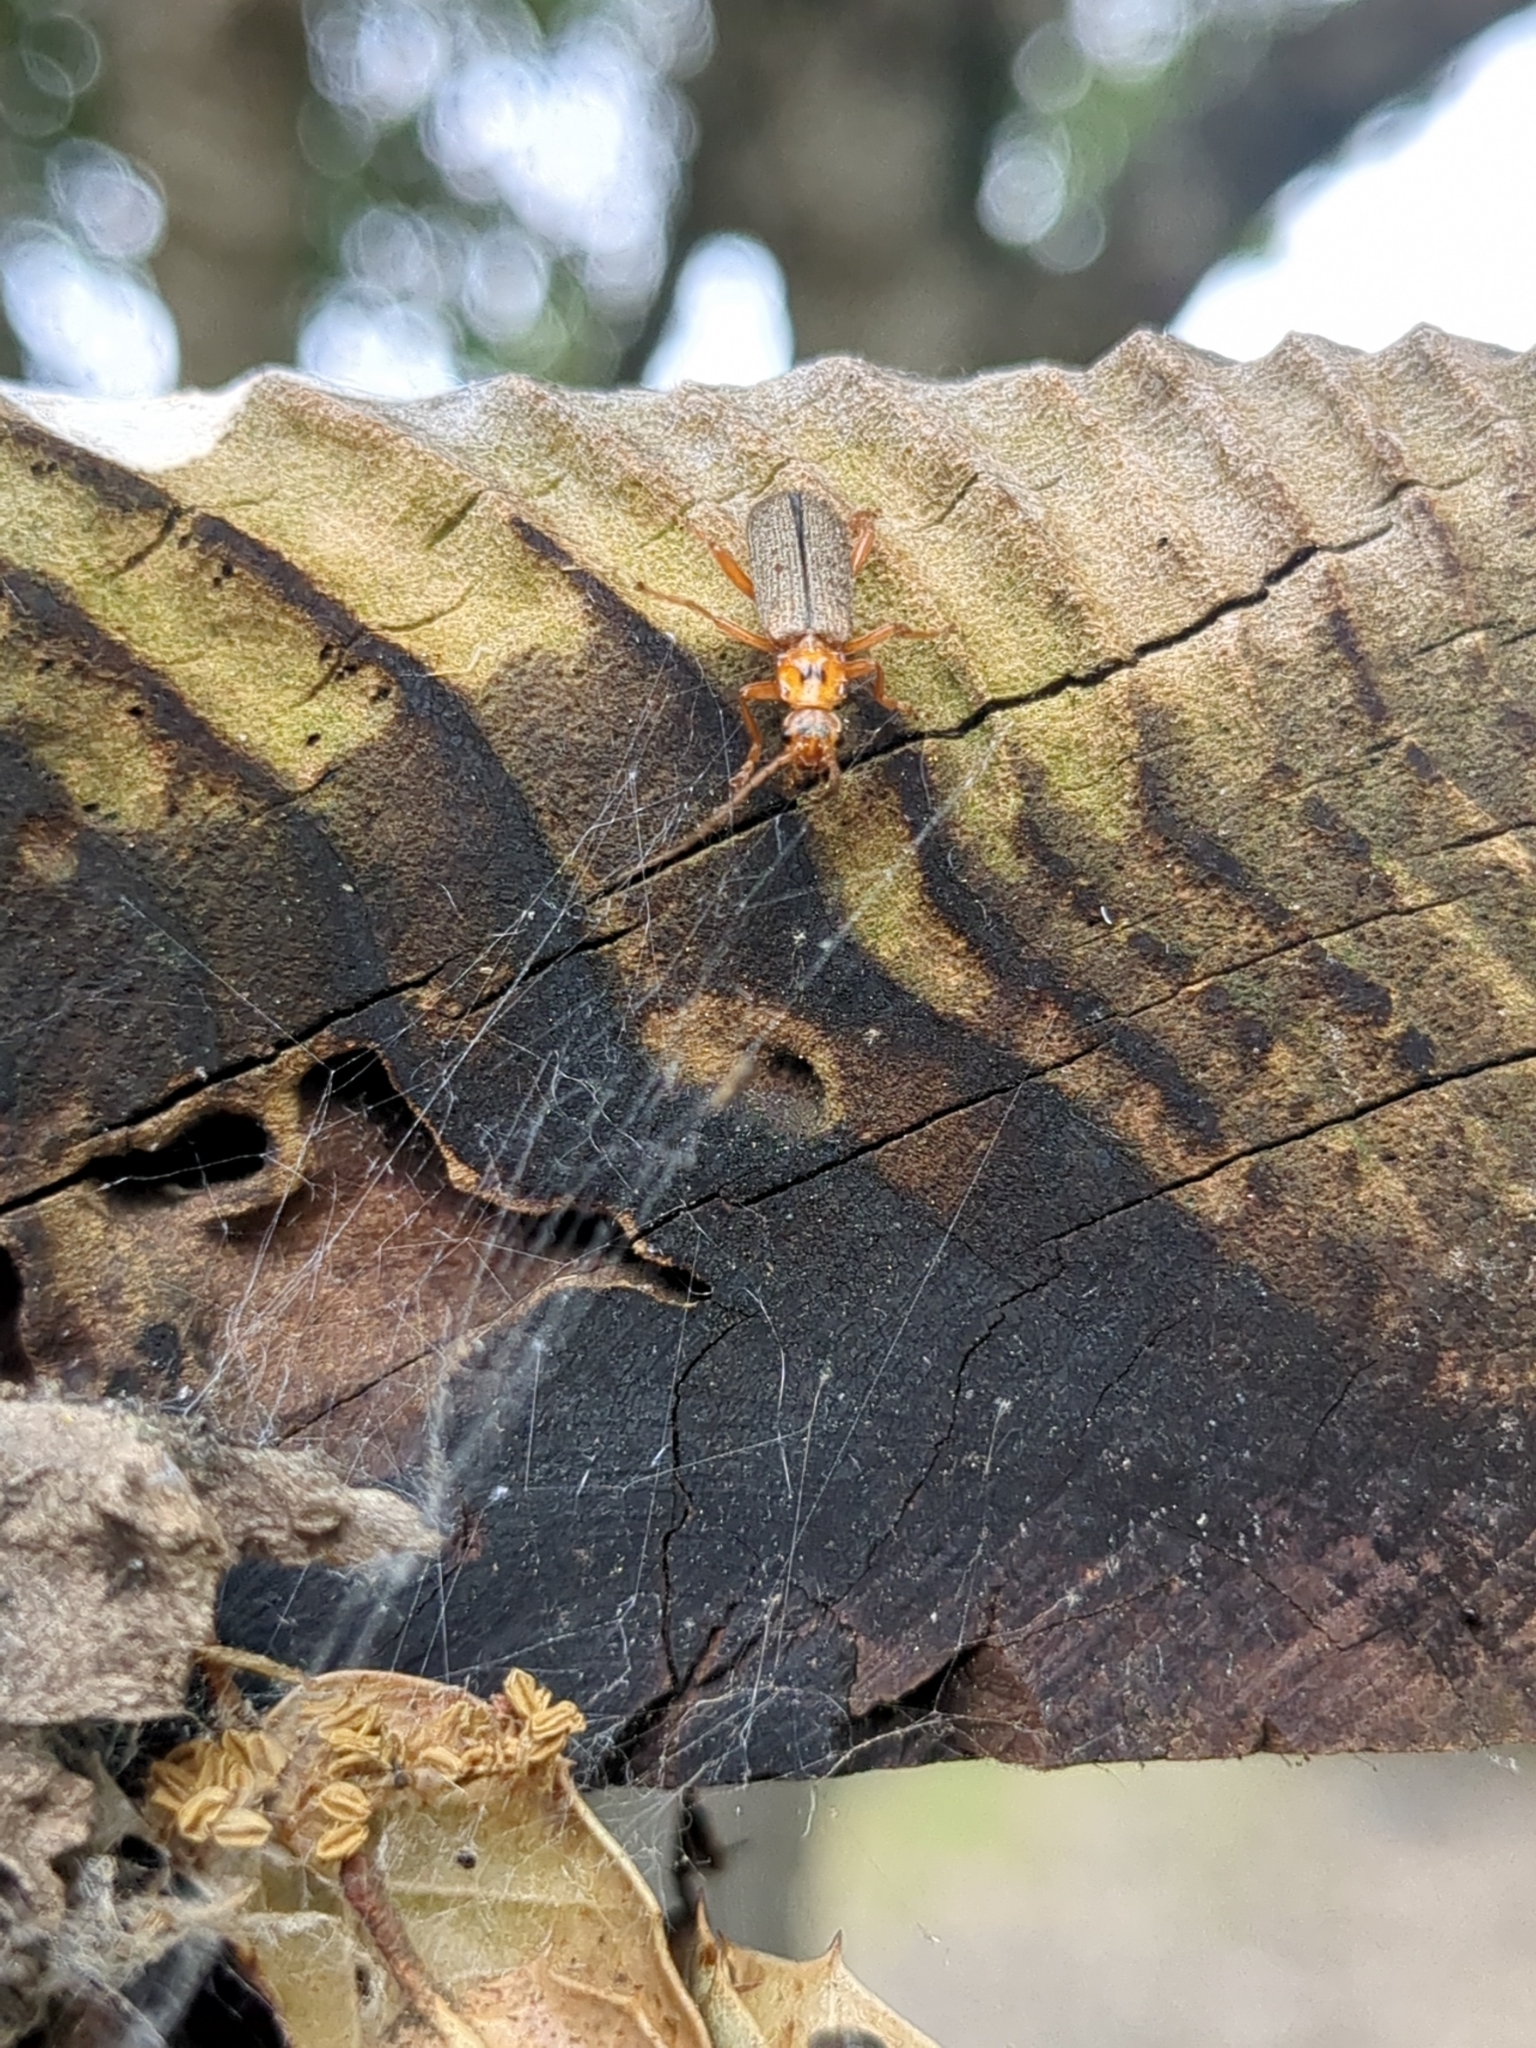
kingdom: Animalia
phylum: Arthropoda
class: Insecta
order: Coleoptera
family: Cantharidae
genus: Cultellunguis
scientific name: Cultellunguis americanus
